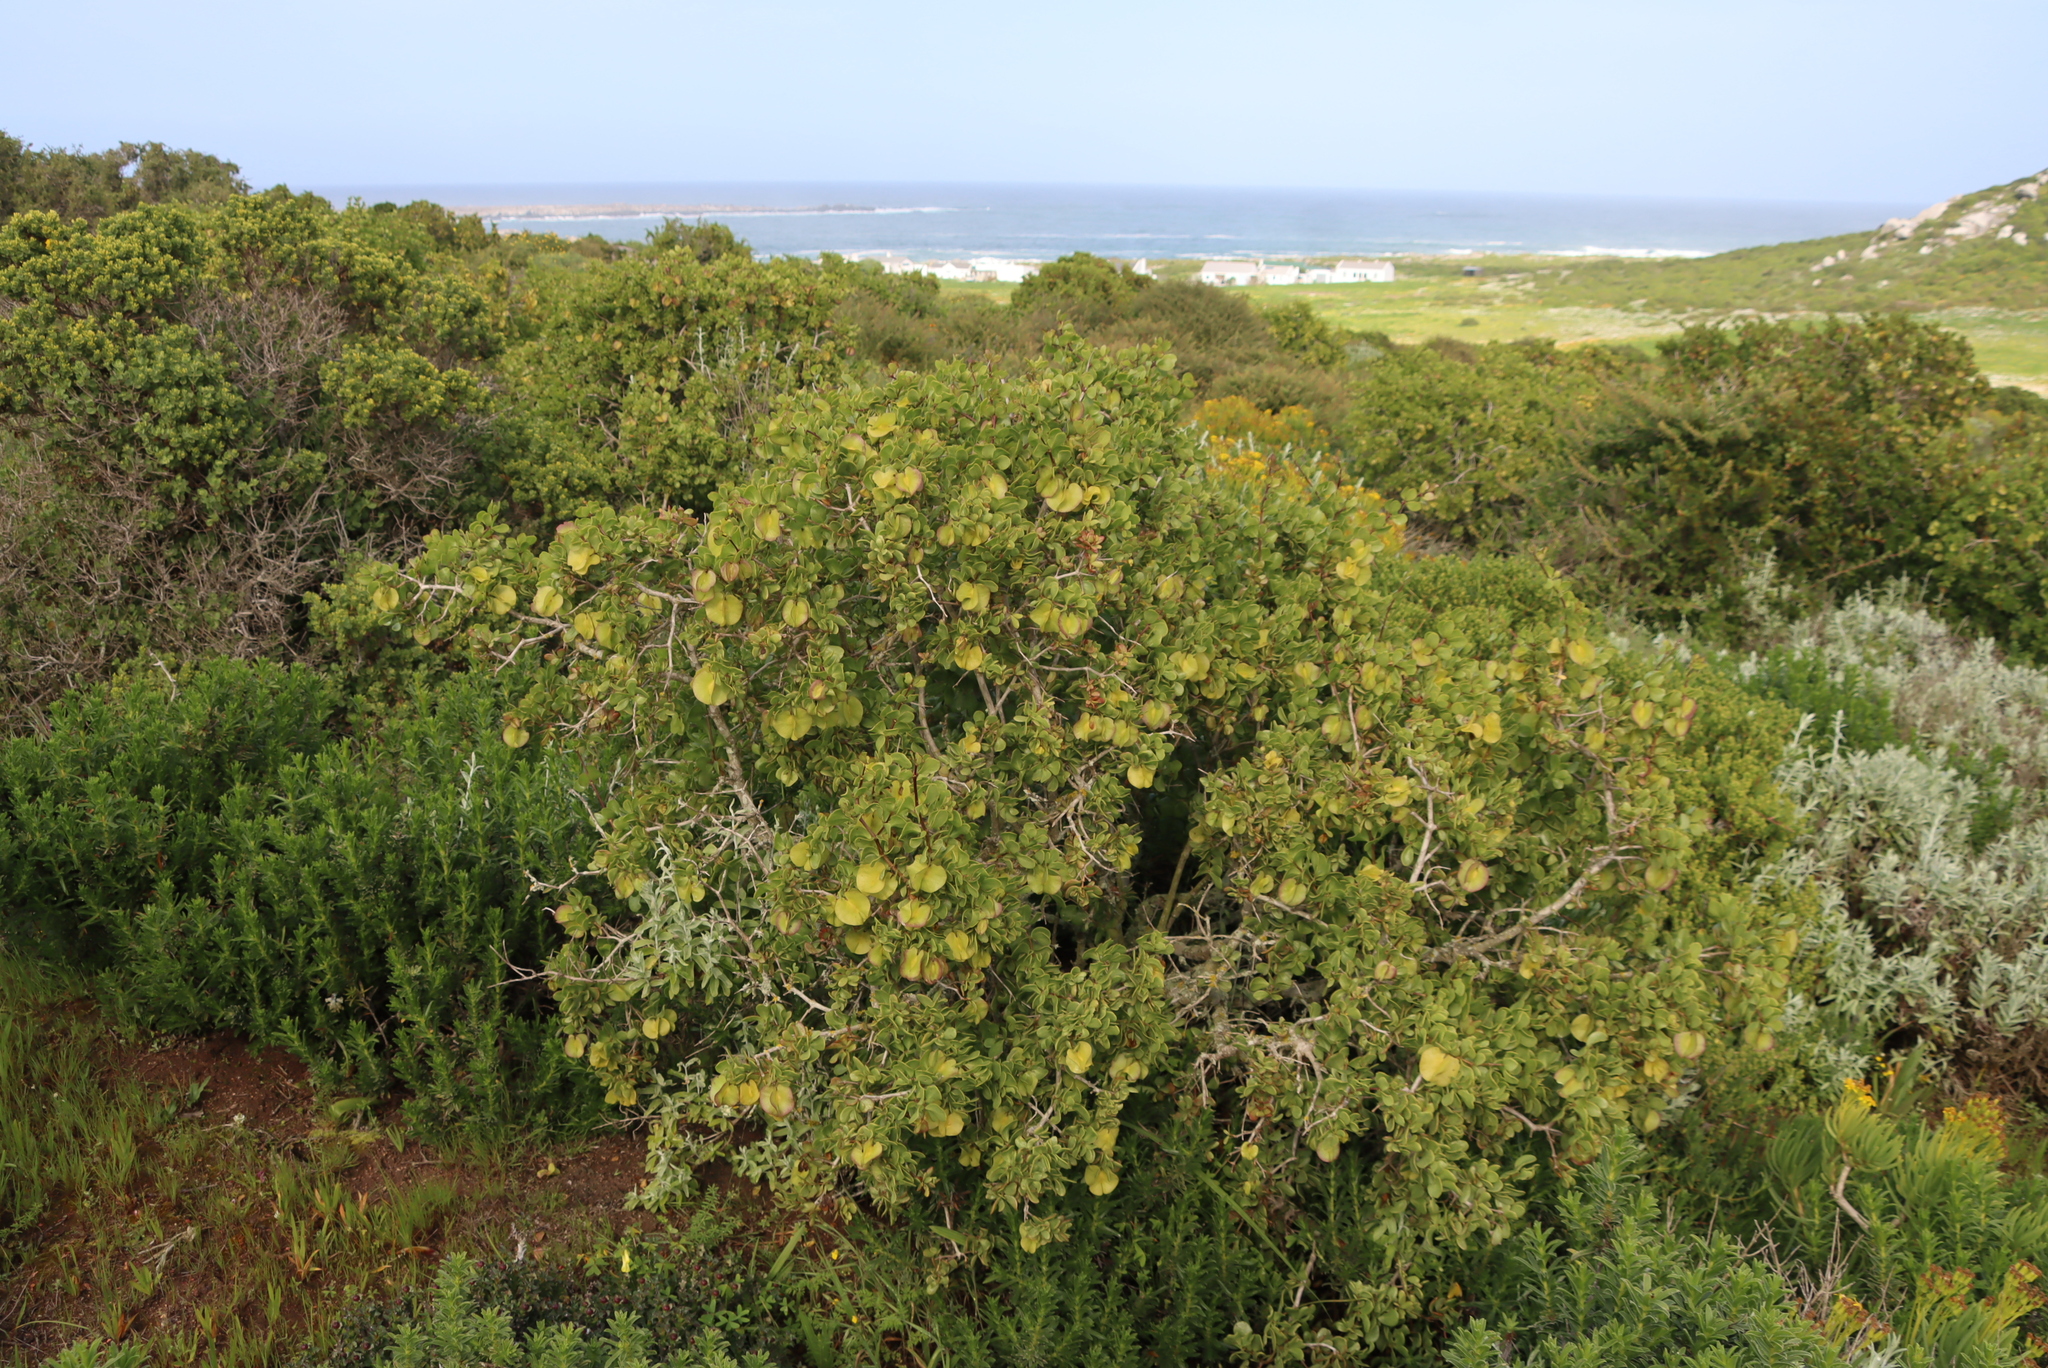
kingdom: Plantae
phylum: Tracheophyta
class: Magnoliopsida
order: Zygophyllales
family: Zygophyllaceae
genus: Roepera
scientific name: Roepera morgsana
